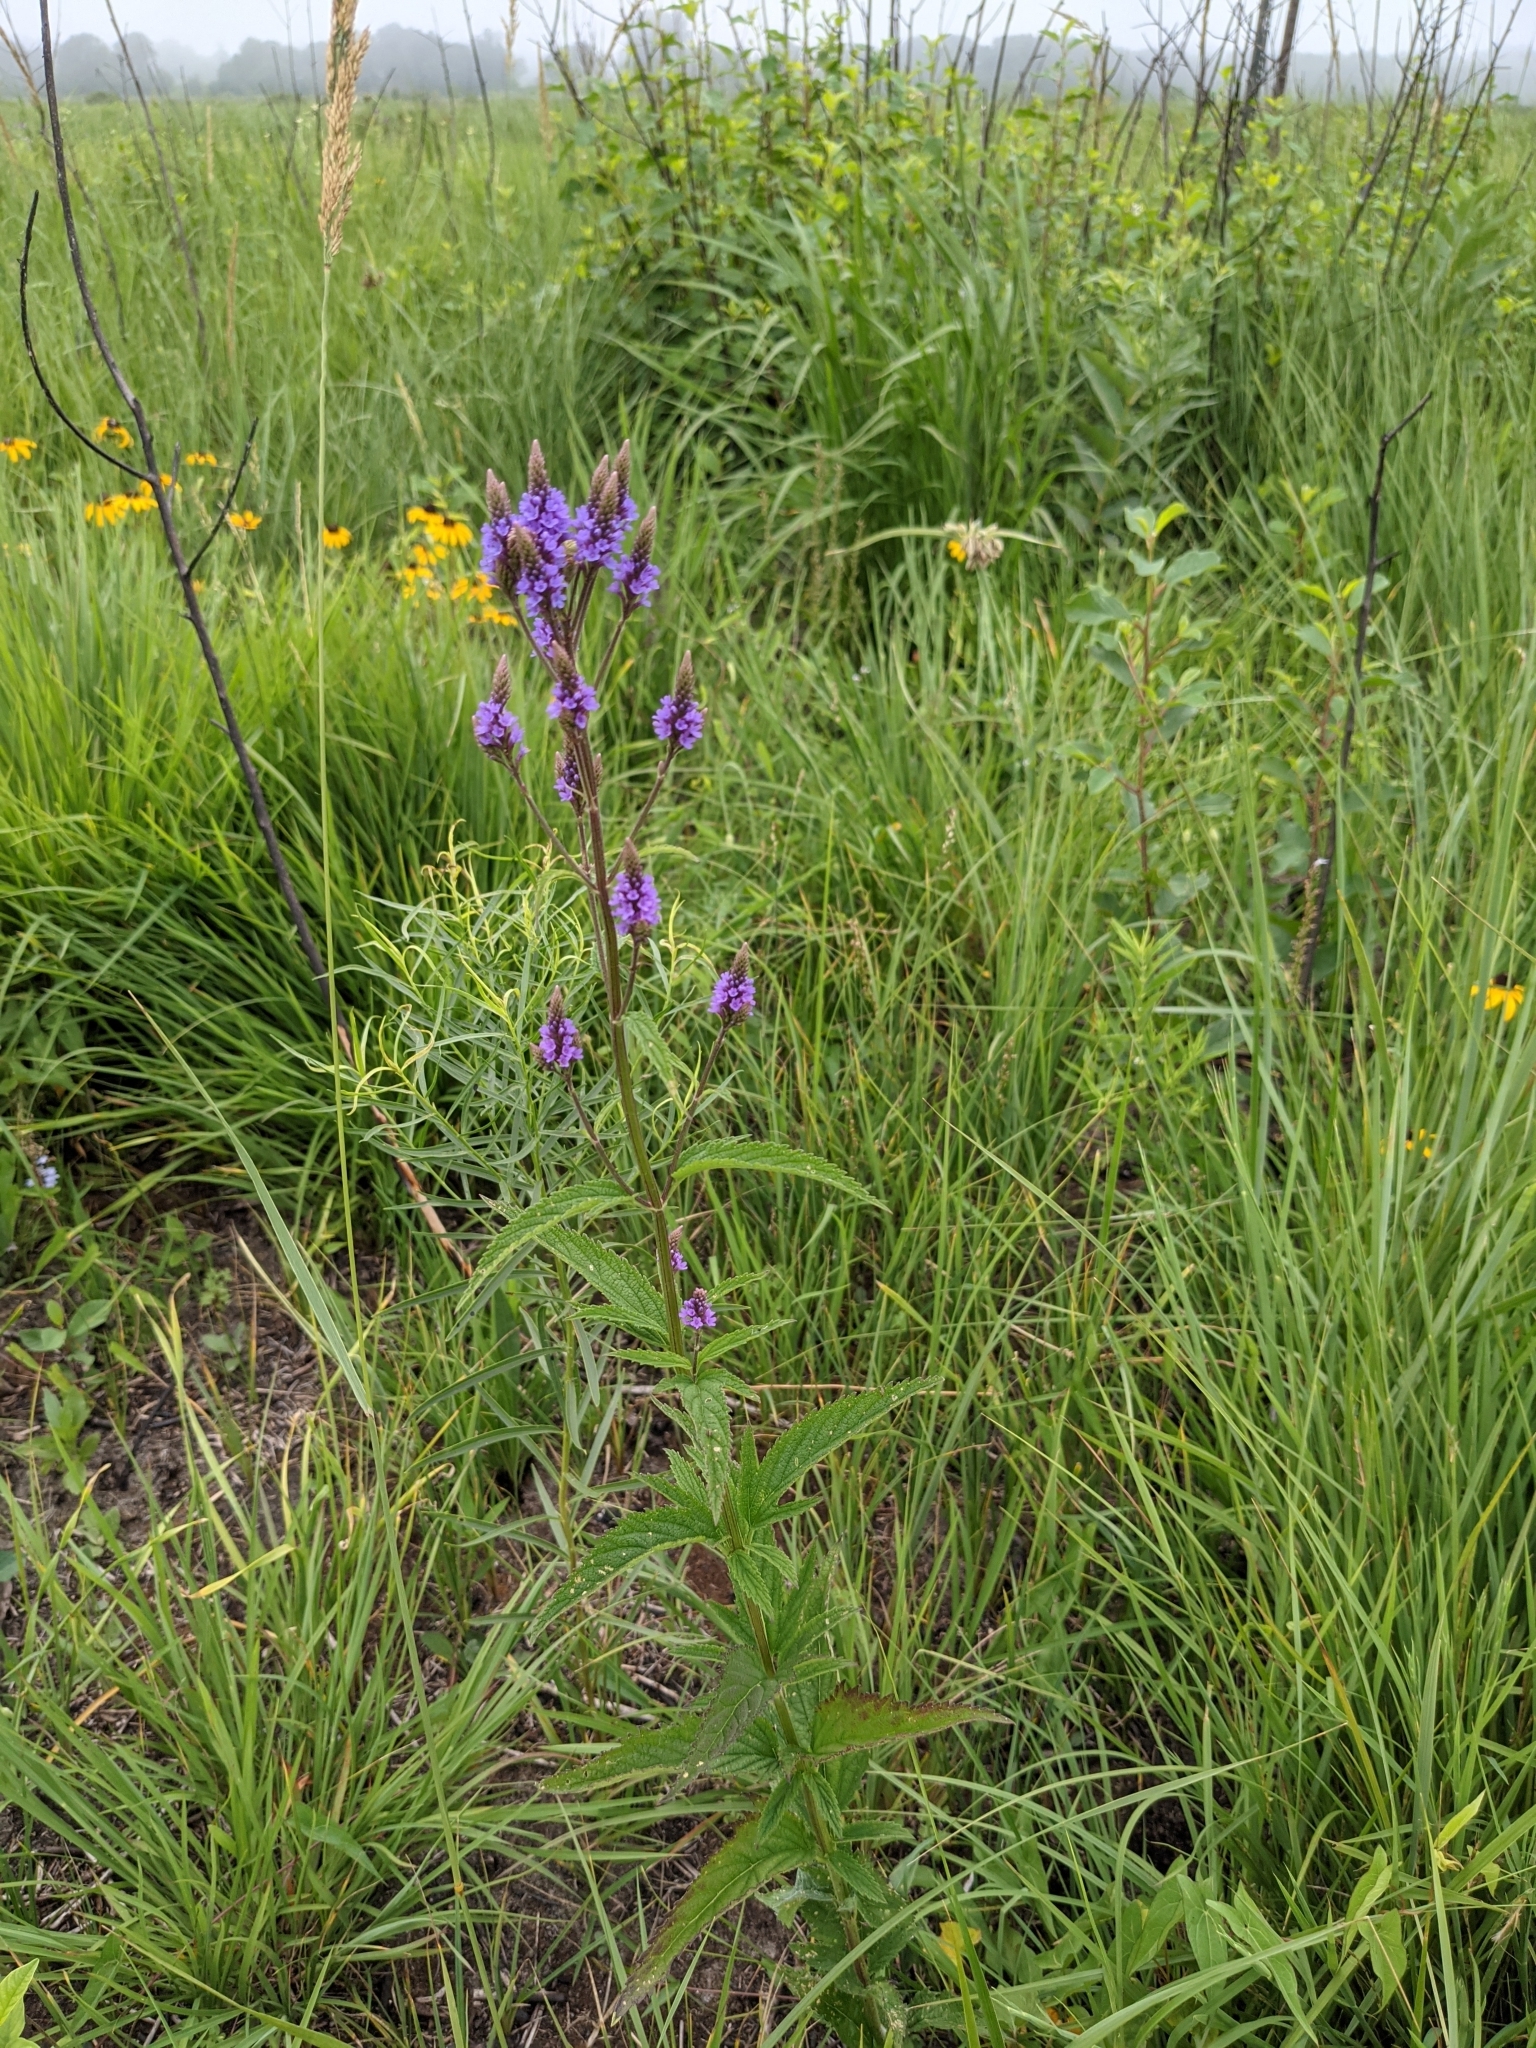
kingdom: Plantae
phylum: Tracheophyta
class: Magnoliopsida
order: Lamiales
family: Verbenaceae
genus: Verbena
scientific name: Verbena hastata
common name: American blue vervain
